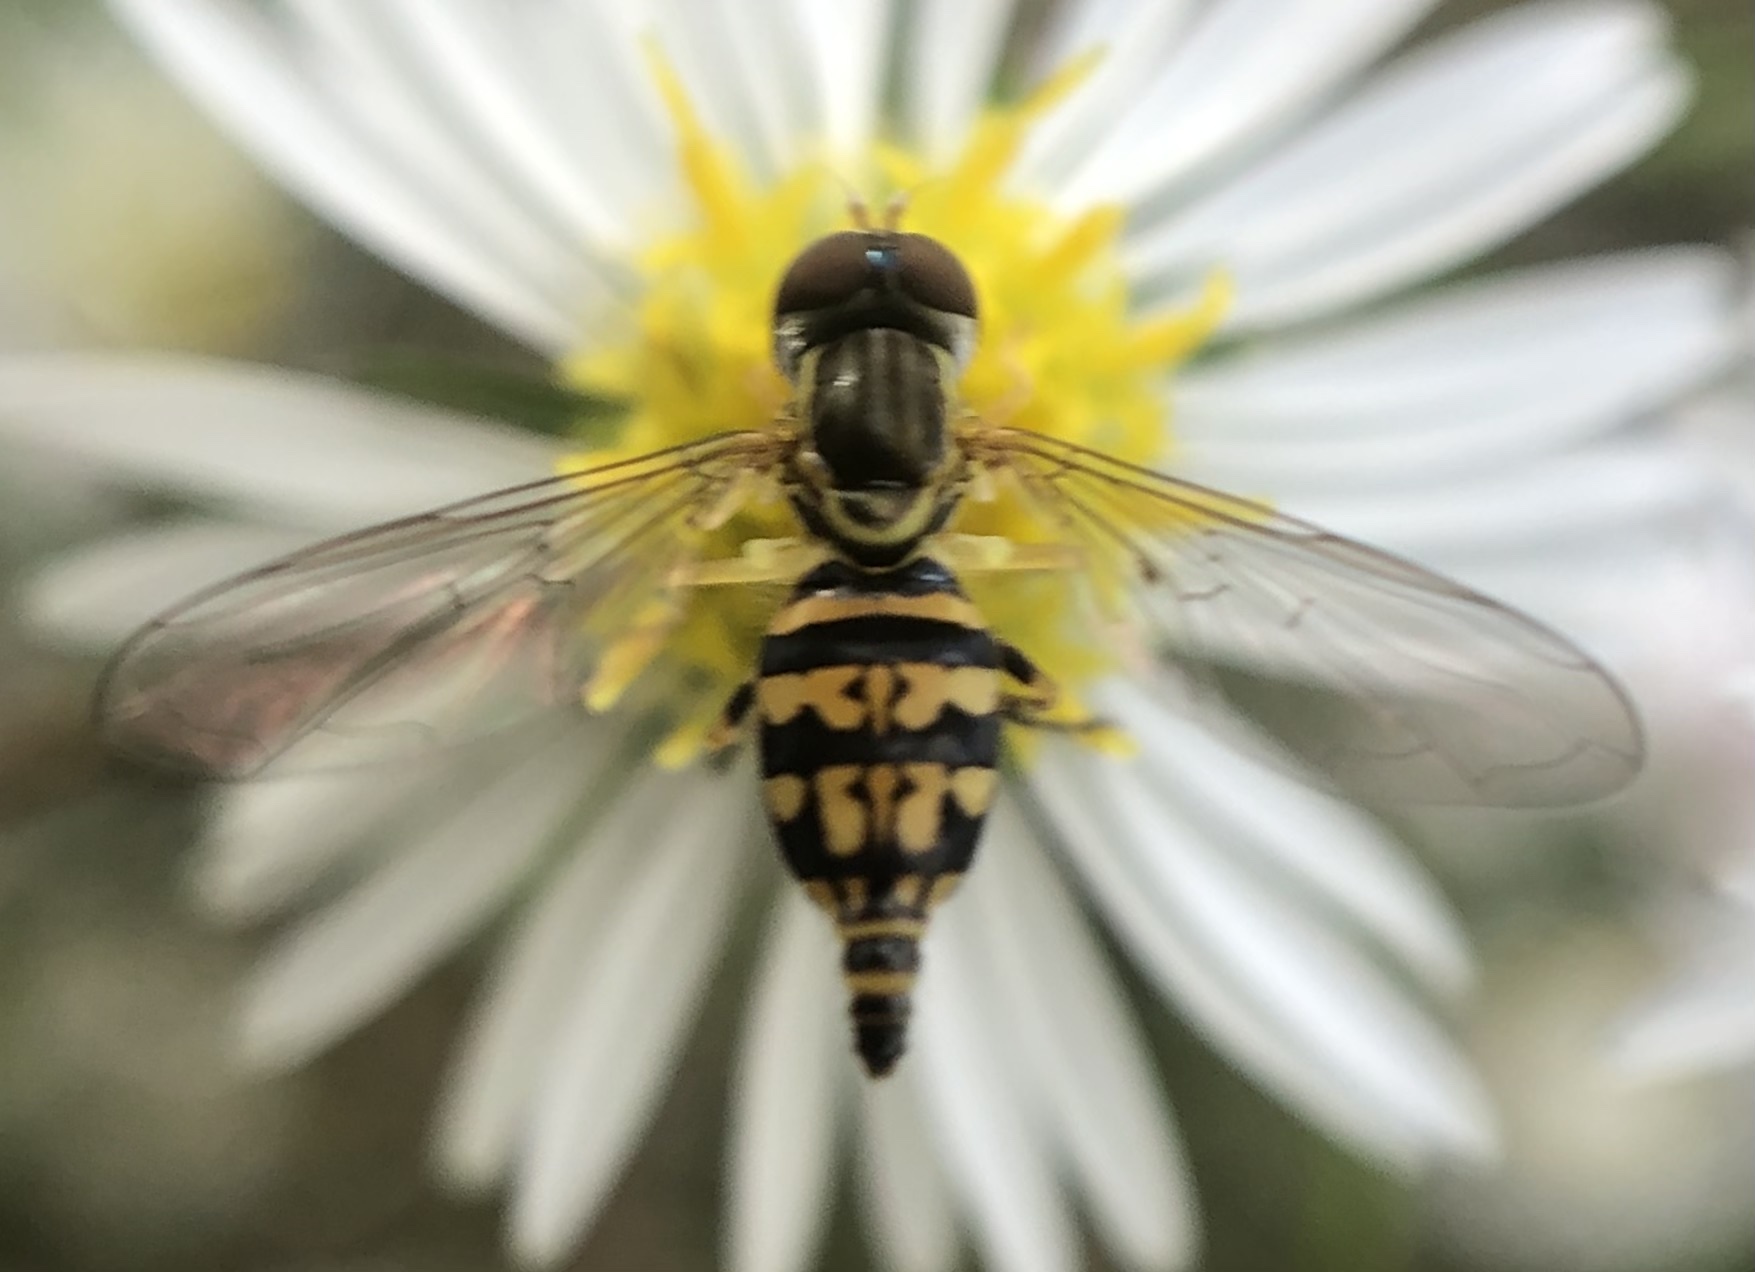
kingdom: Animalia
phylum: Arthropoda
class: Insecta
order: Diptera
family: Syrphidae
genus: Toxomerus
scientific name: Toxomerus geminatus
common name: Eastern calligrapher
